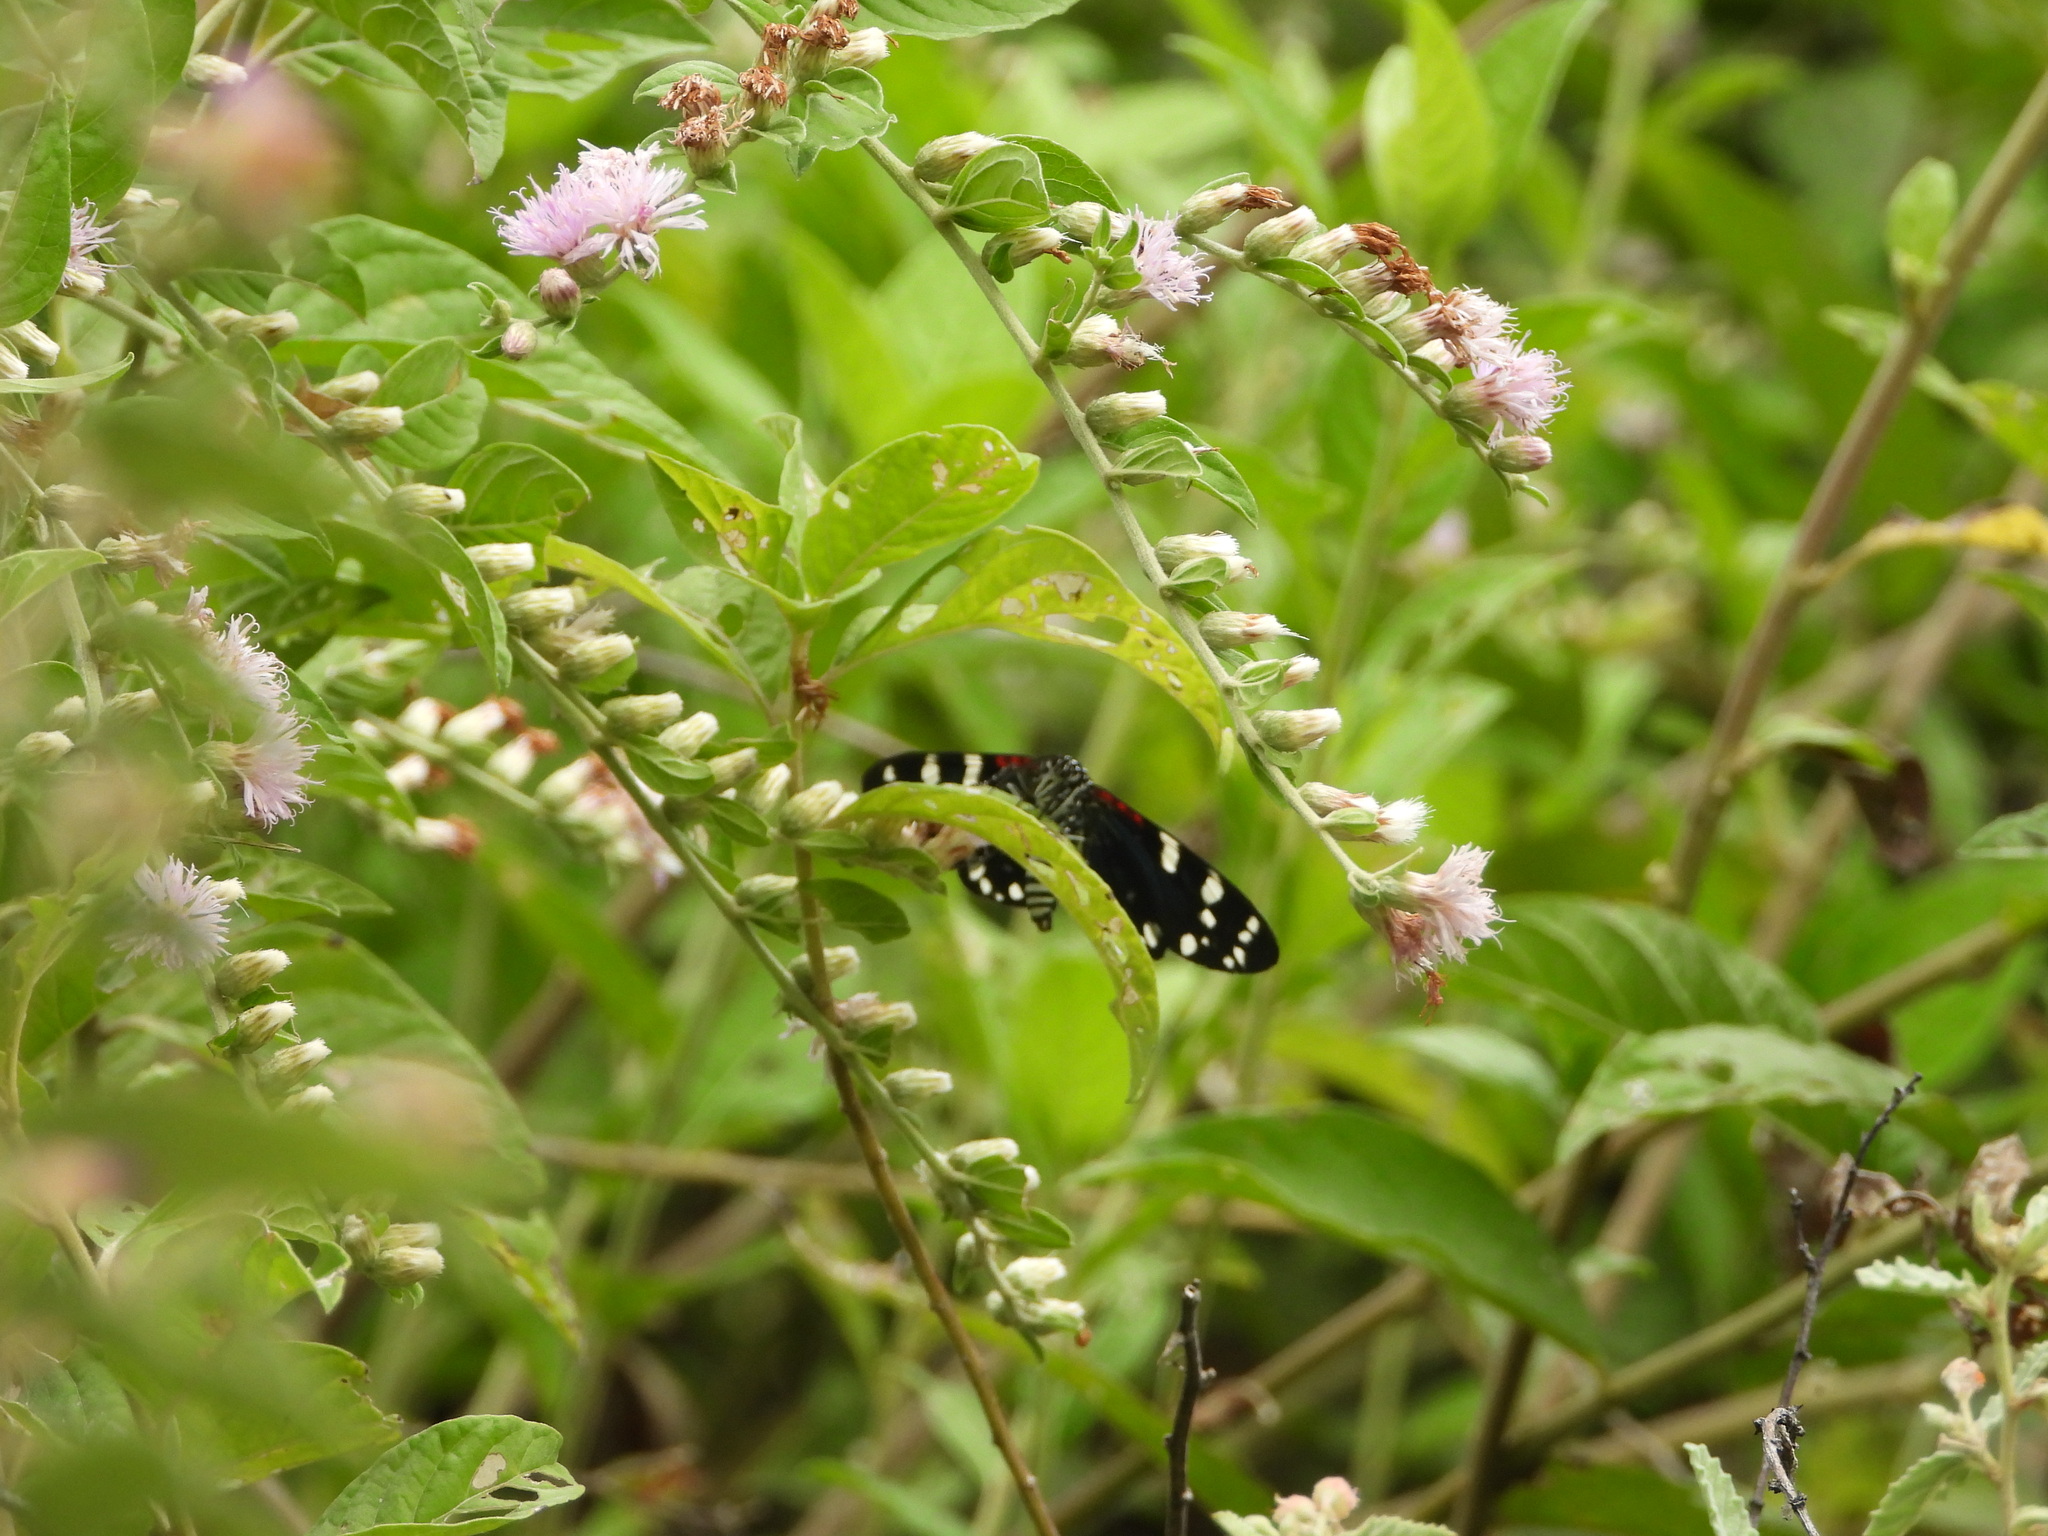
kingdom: Animalia
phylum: Arthropoda
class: Insecta
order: Lepidoptera
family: Erebidae
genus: Composia
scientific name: Composia fidelissima
